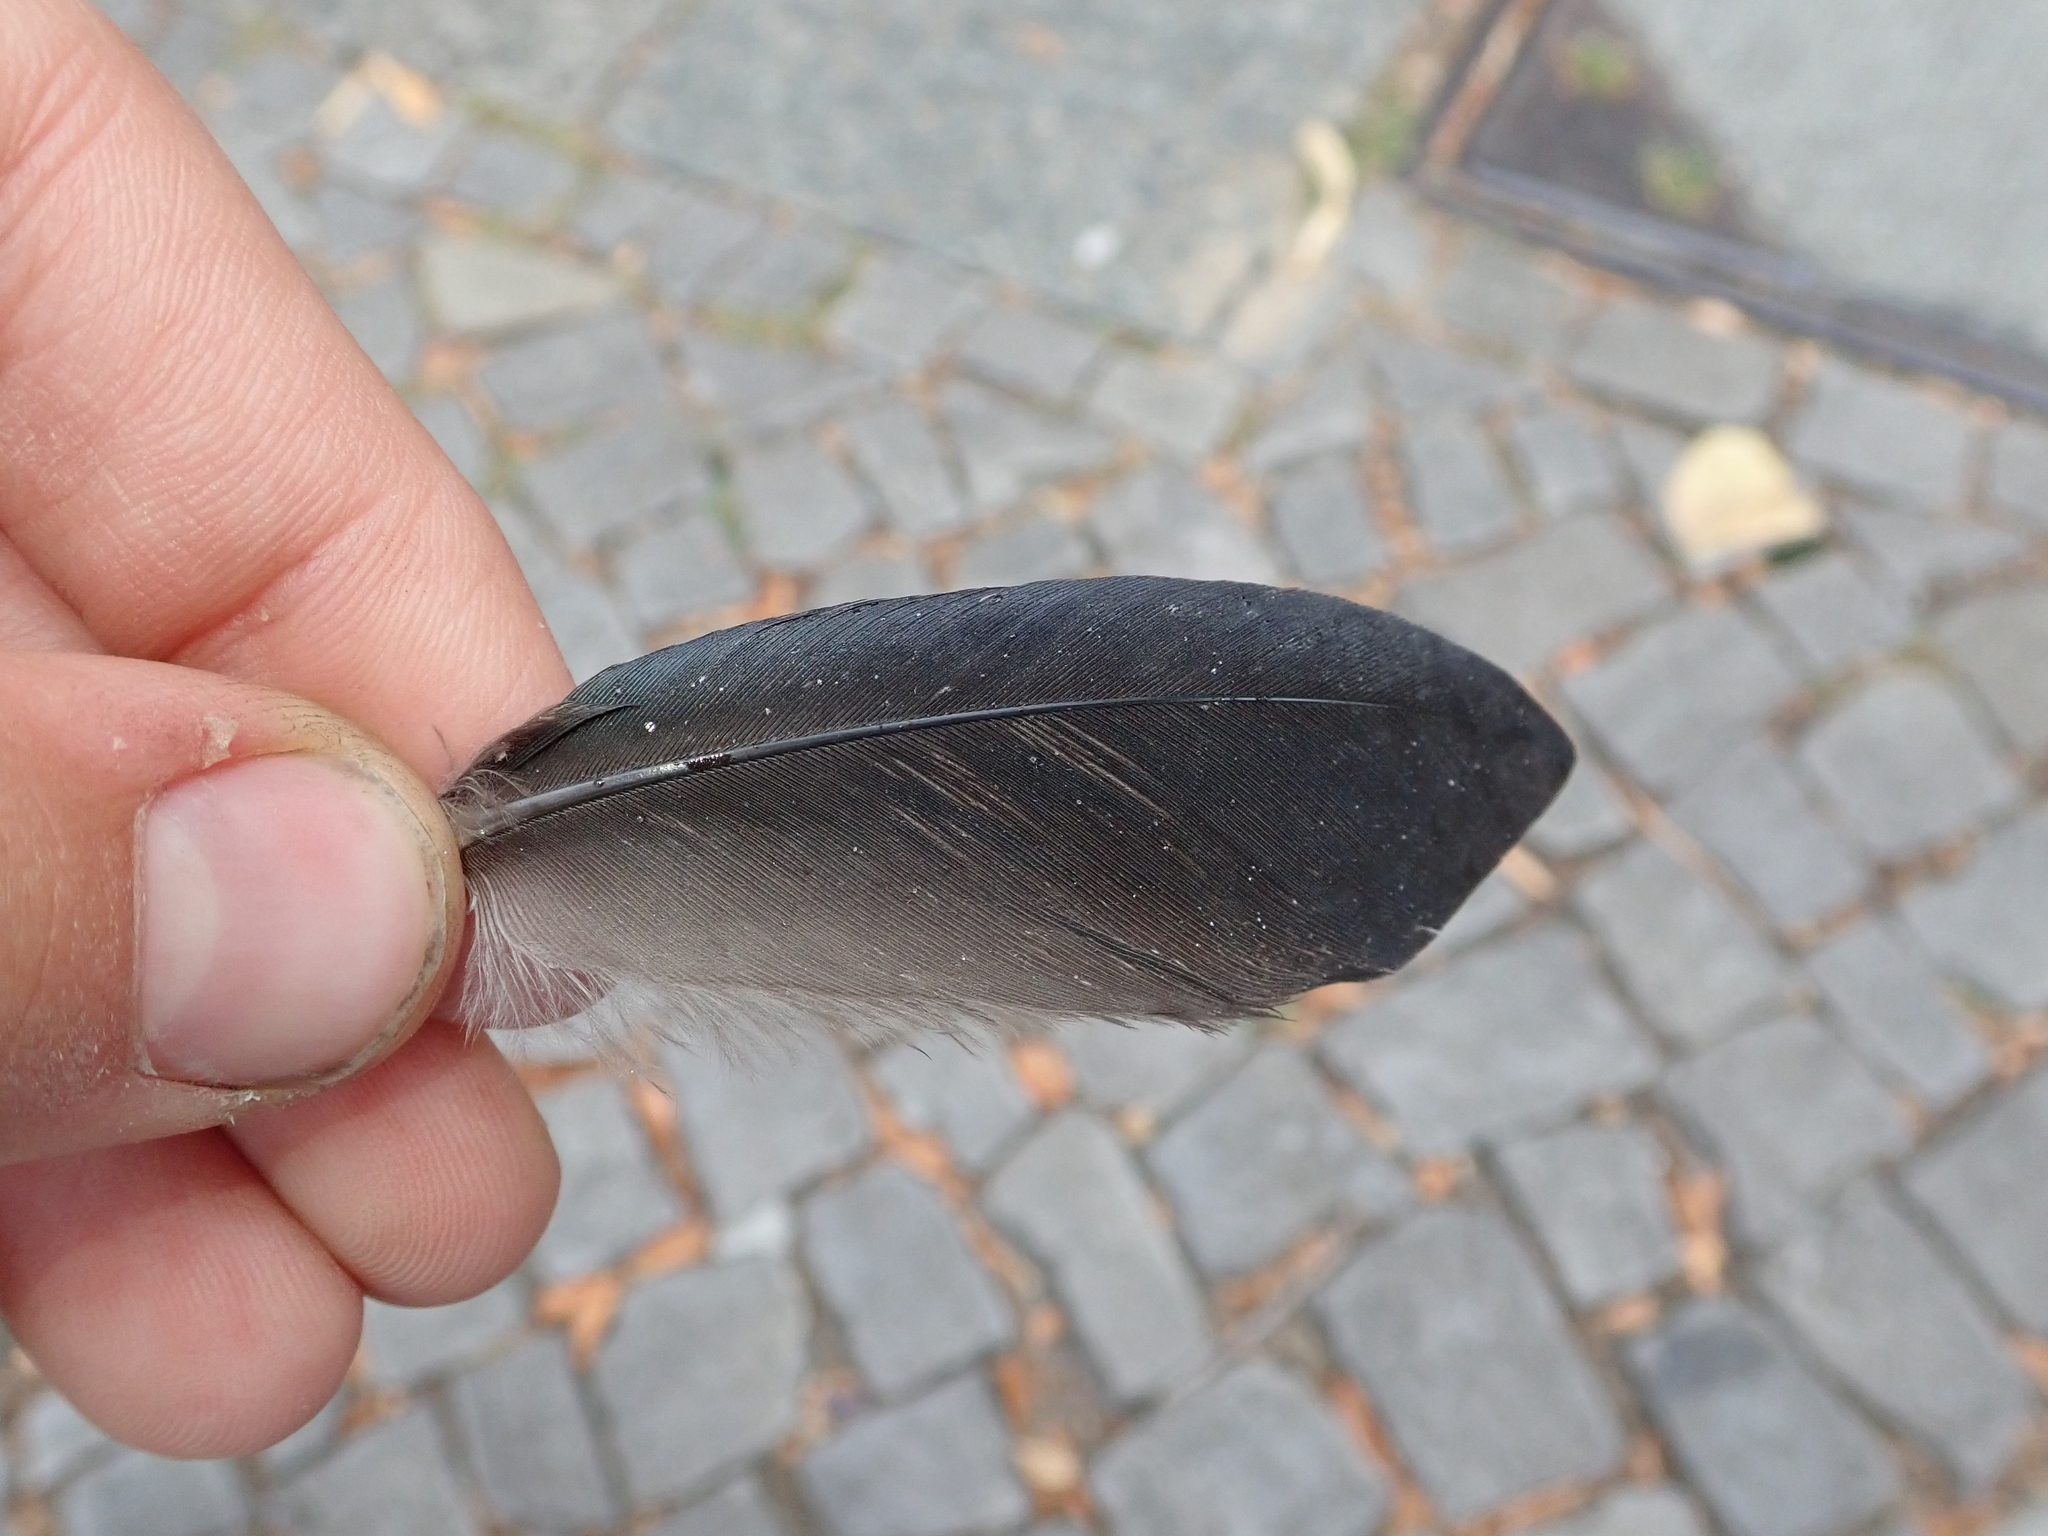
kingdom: Animalia
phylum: Chordata
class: Aves
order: Passeriformes
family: Corvidae
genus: Corvus
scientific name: Corvus cornix
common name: Hooded crow
